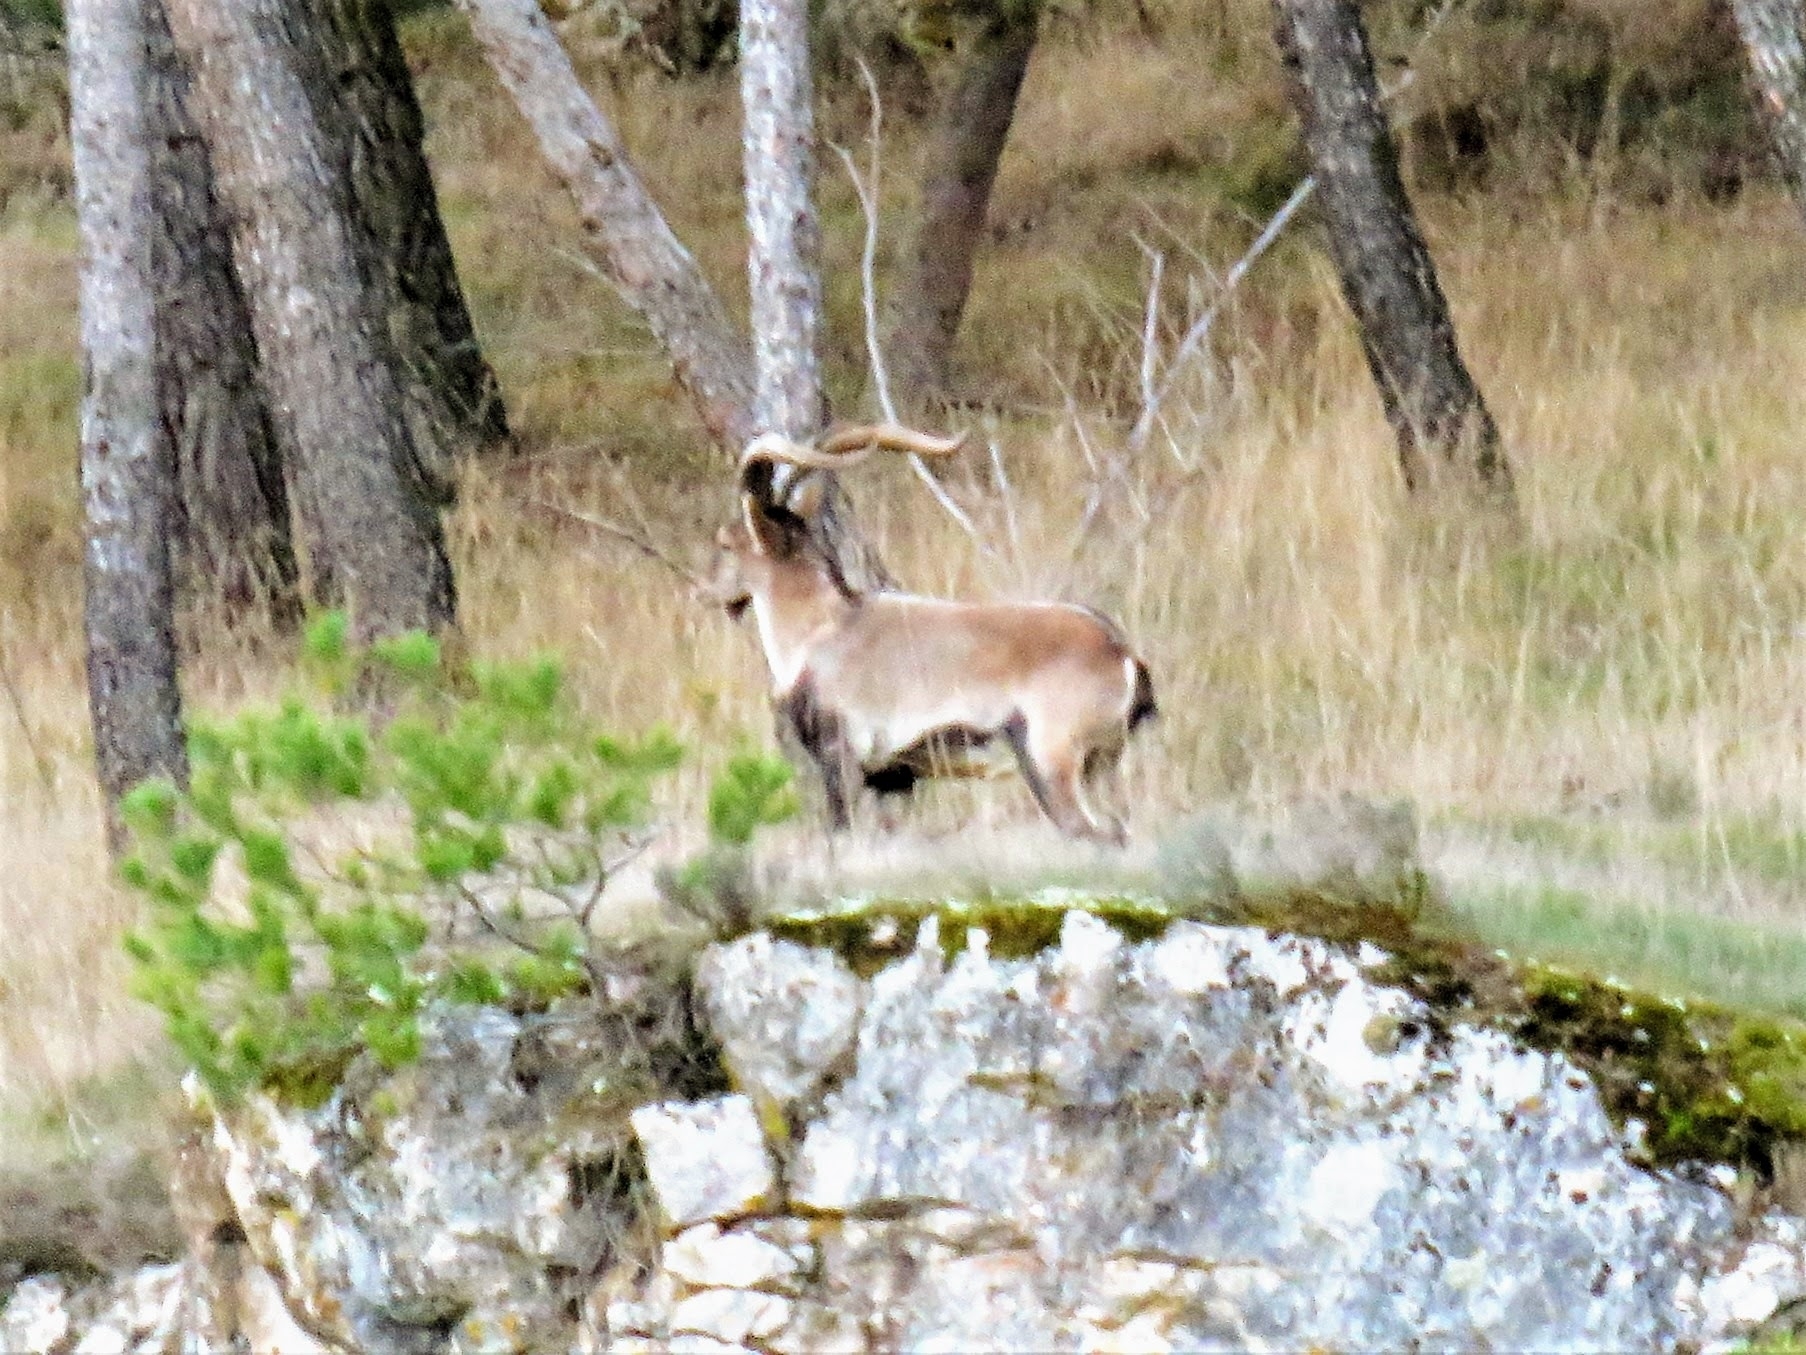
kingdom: Animalia
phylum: Chordata
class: Mammalia
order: Artiodactyla
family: Bovidae
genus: Capra
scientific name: Capra pyrenaica
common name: Spanish ibex
